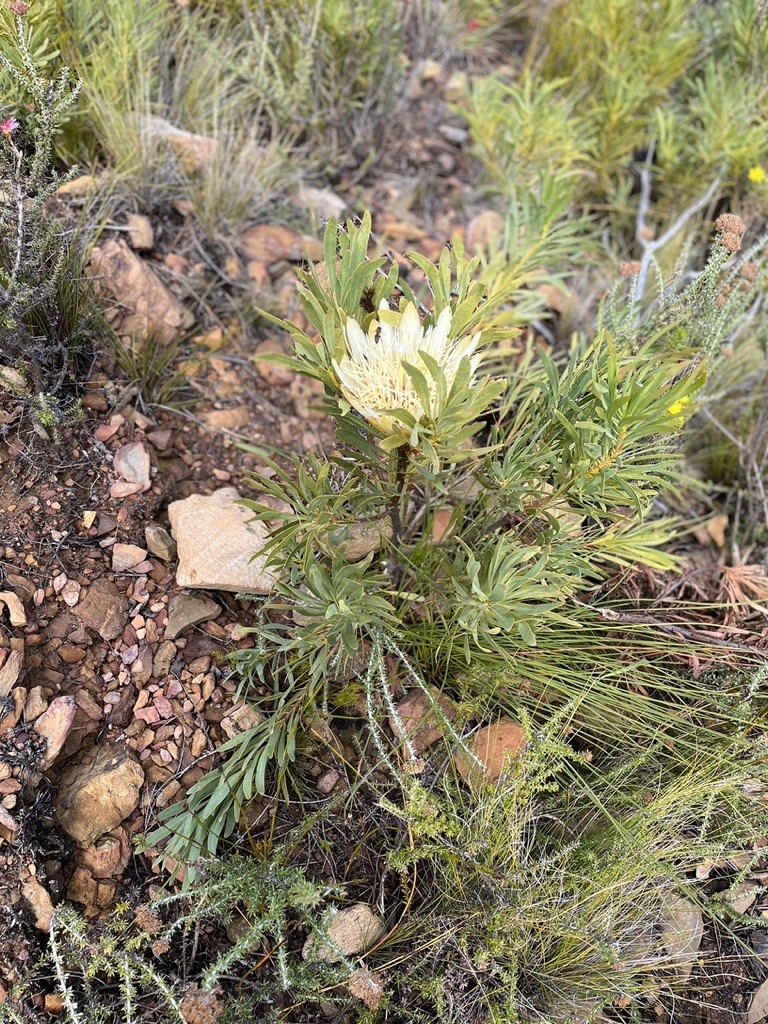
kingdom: Plantae
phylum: Tracheophyta
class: Magnoliopsida
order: Proteales
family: Proteaceae
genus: Protea
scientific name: Protea repens
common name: Sugarbush
